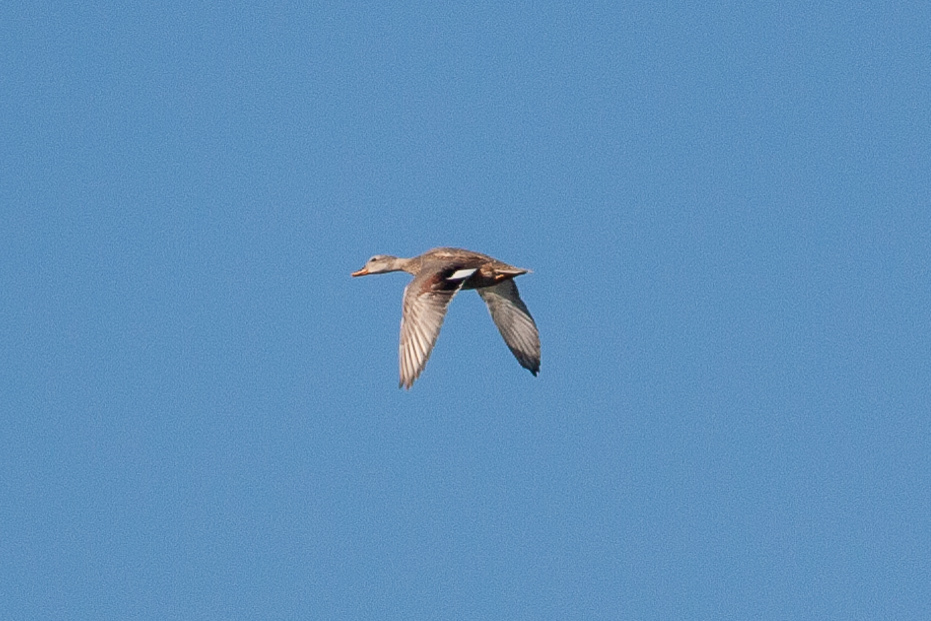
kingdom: Animalia
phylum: Chordata
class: Aves
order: Anseriformes
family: Anatidae
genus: Mareca
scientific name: Mareca strepera
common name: Gadwall
